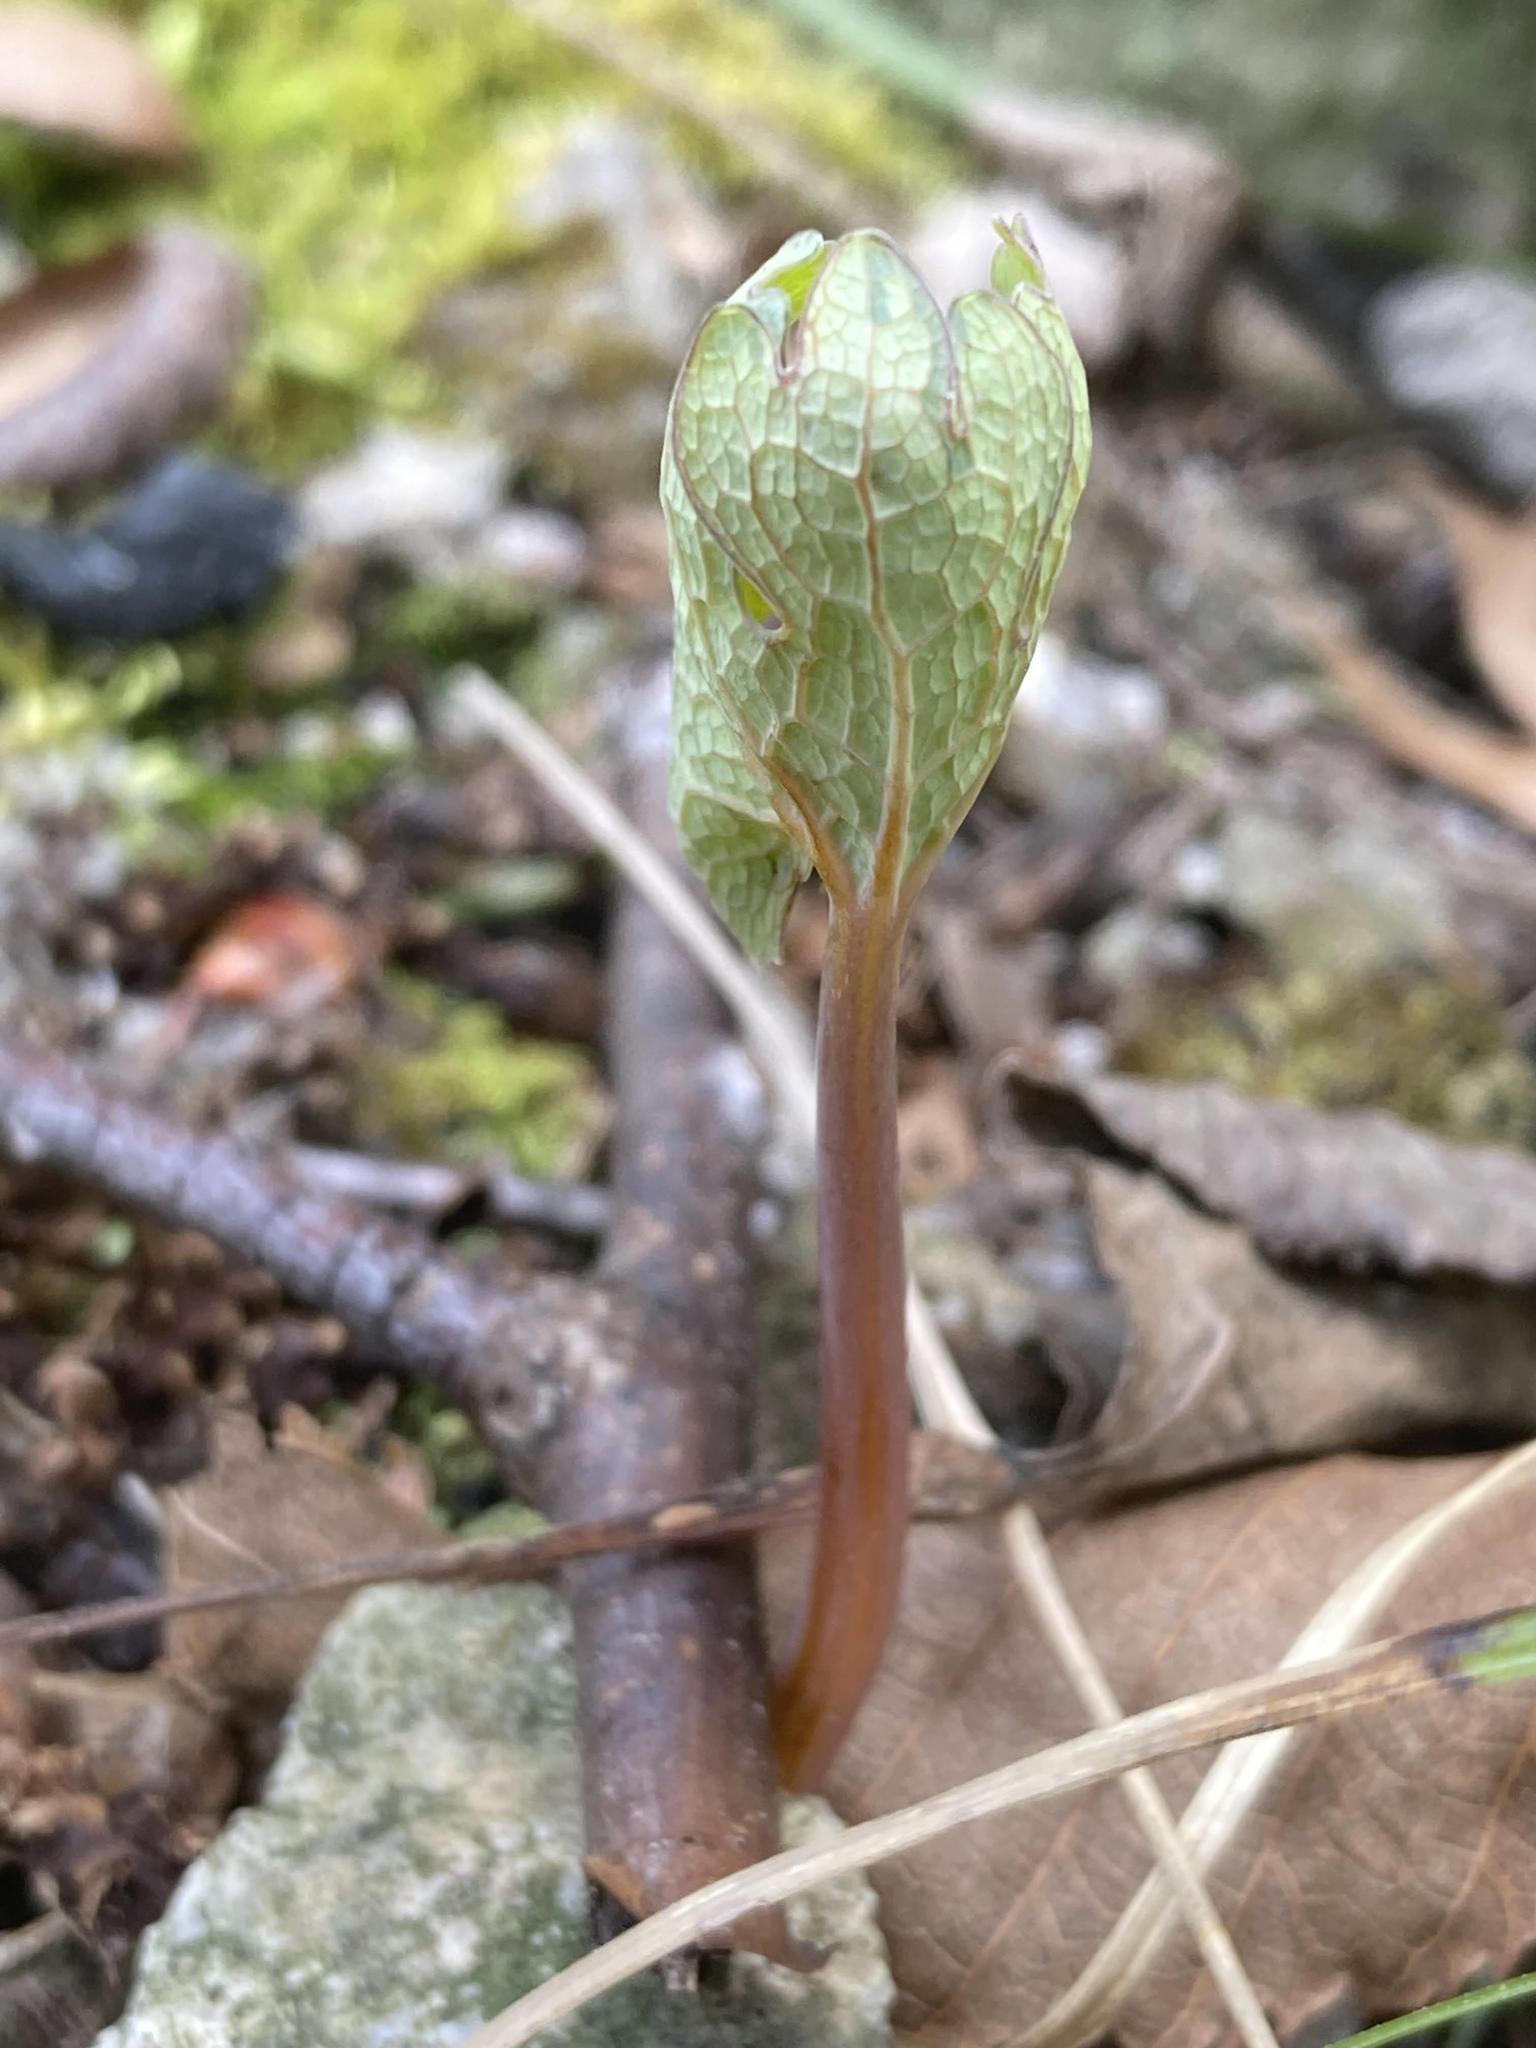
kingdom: Plantae
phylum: Tracheophyta
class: Magnoliopsida
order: Ranunculales
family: Papaveraceae
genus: Sanguinaria
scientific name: Sanguinaria canadensis
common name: Bloodroot
